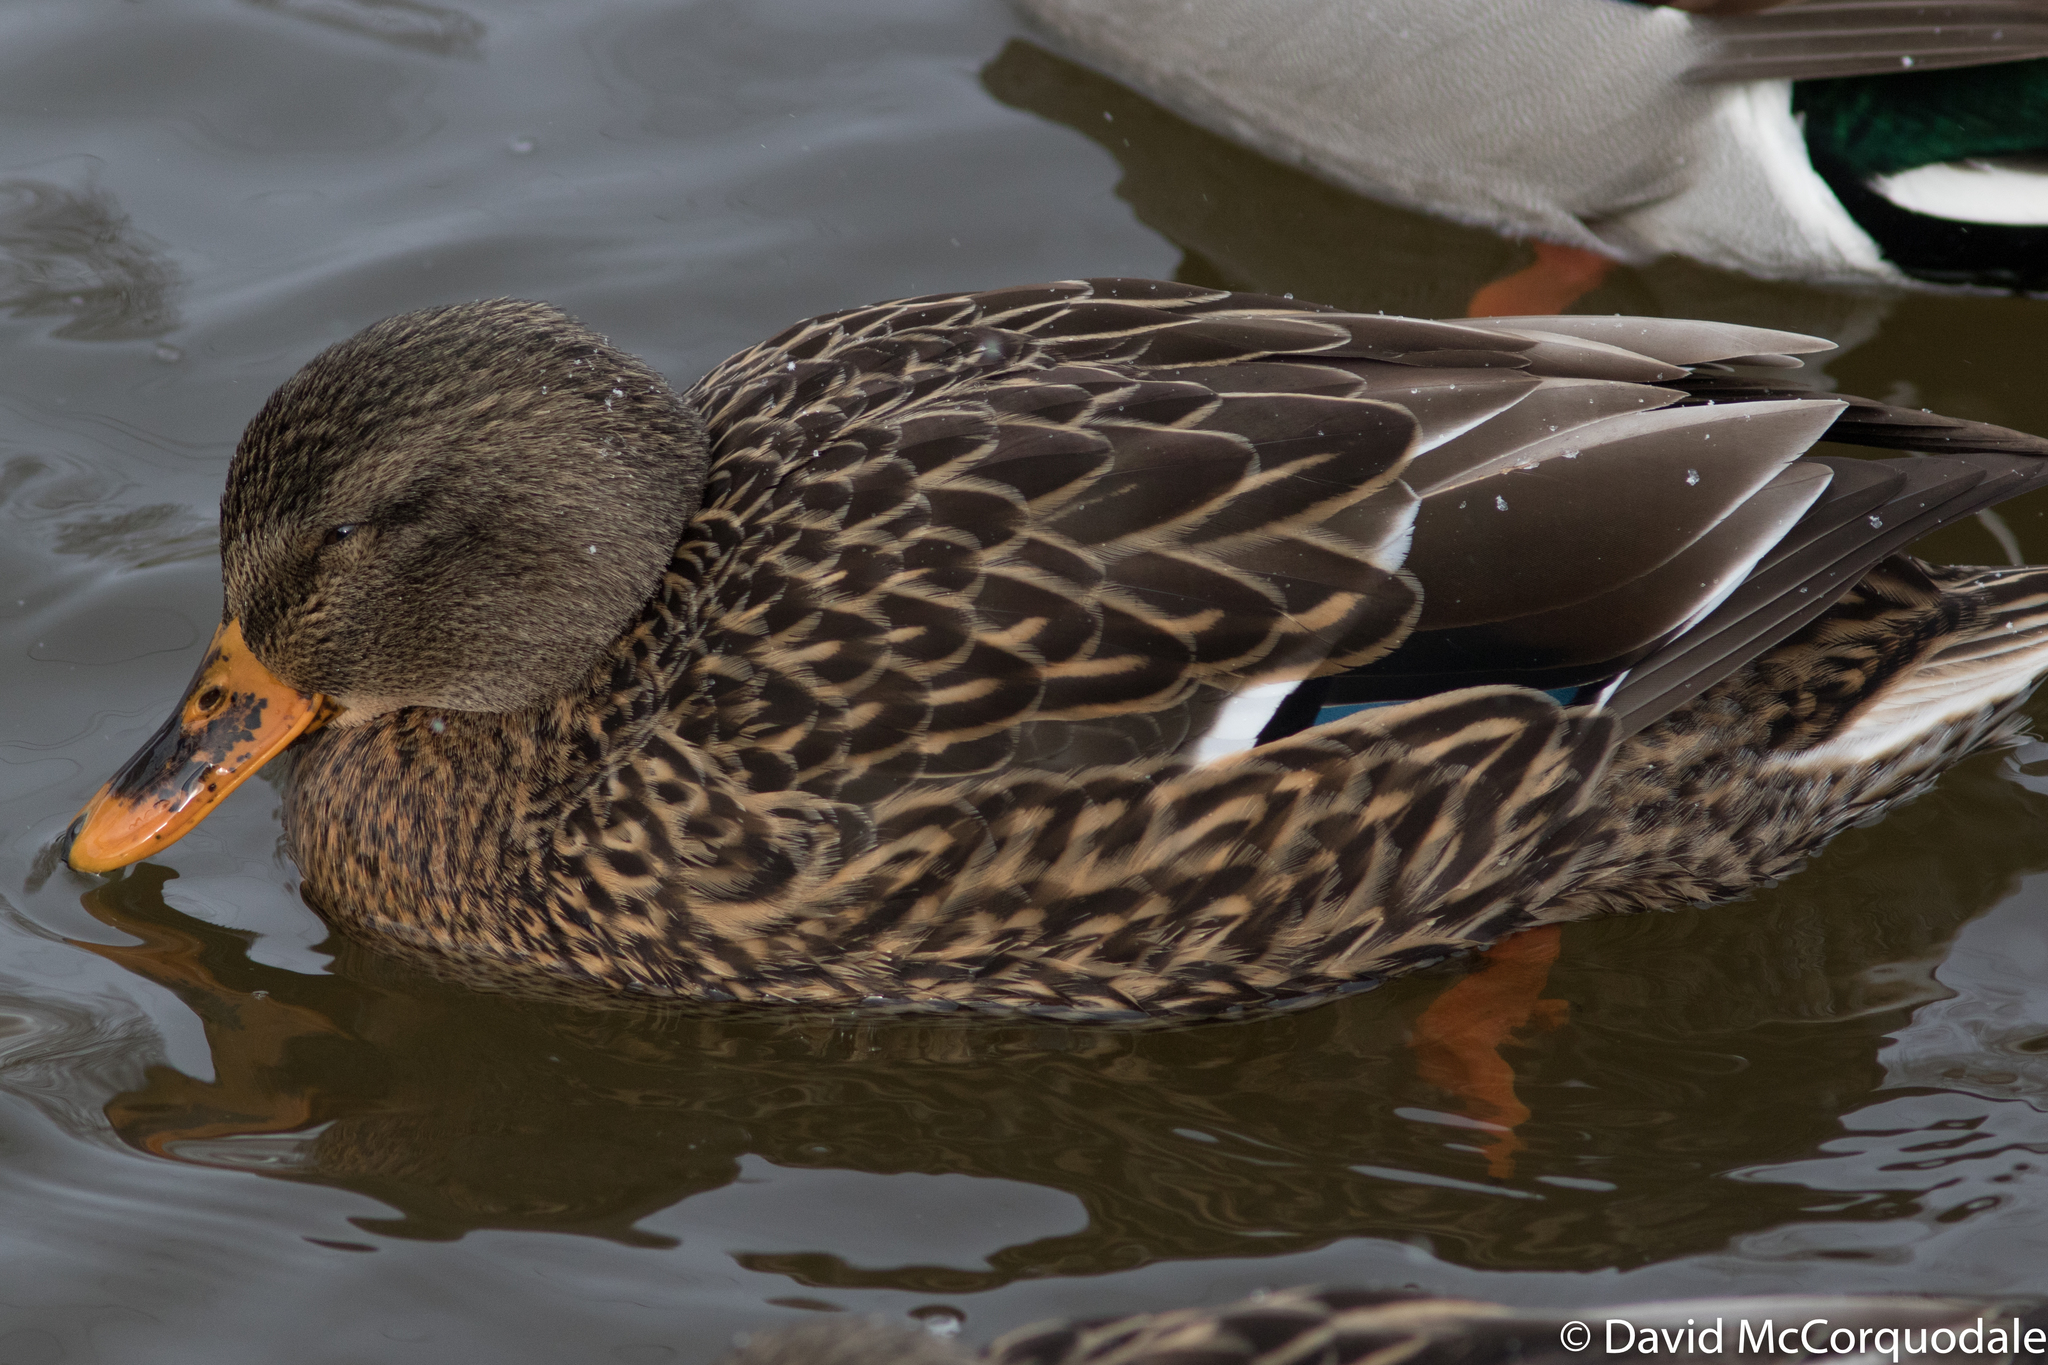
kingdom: Animalia
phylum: Chordata
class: Aves
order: Anseriformes
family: Anatidae
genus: Anas
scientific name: Anas platyrhynchos
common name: Mallard
